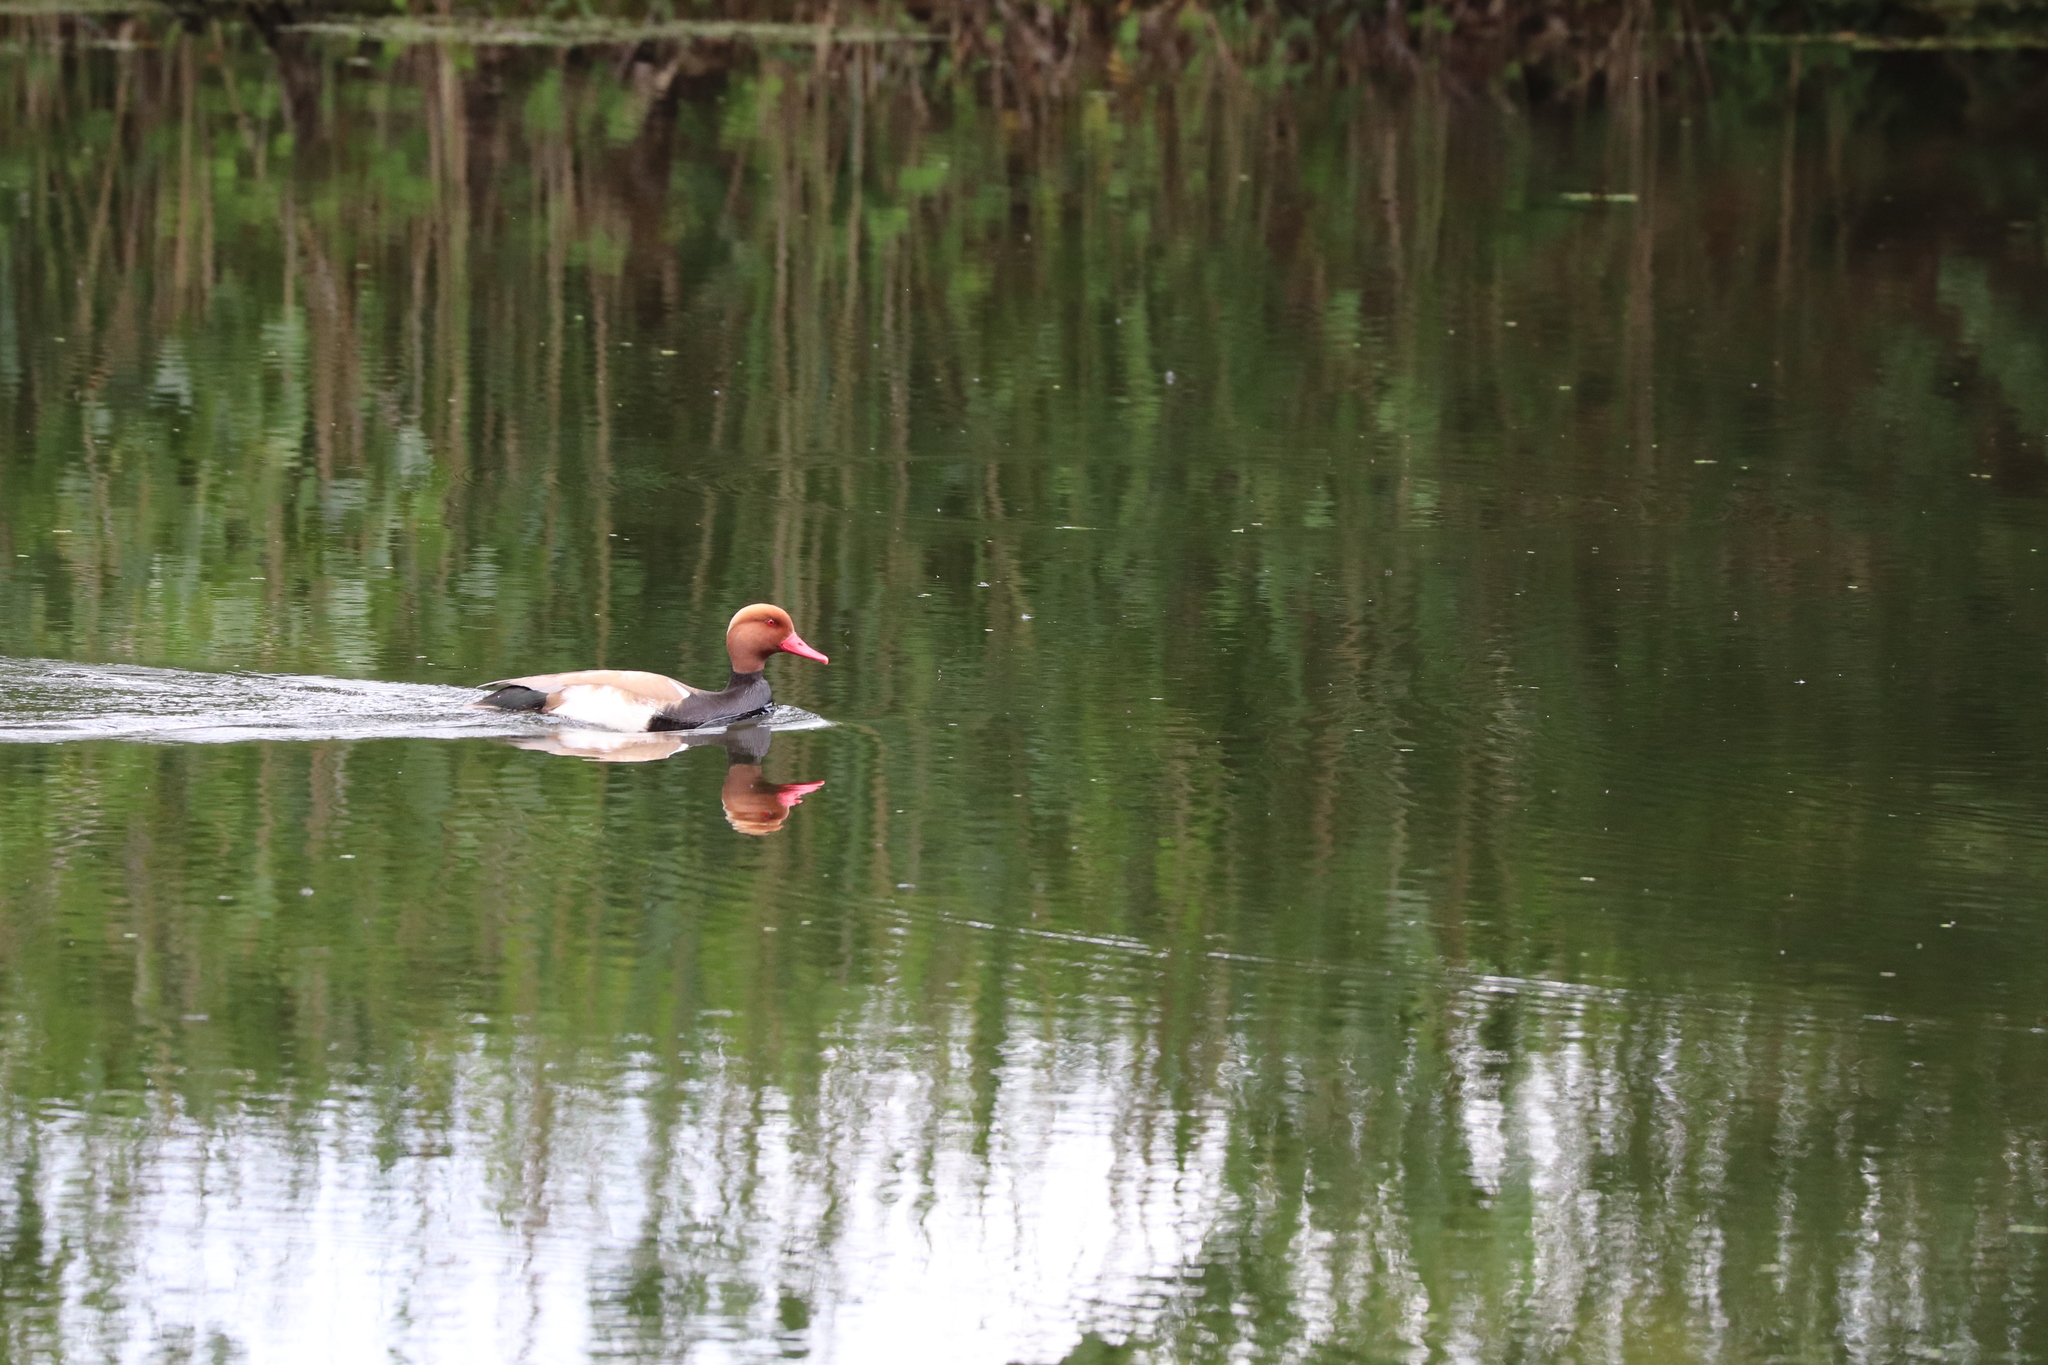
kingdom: Animalia
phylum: Chordata
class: Aves
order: Anseriformes
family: Anatidae
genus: Netta
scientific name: Netta rufina
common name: Red-crested pochard
